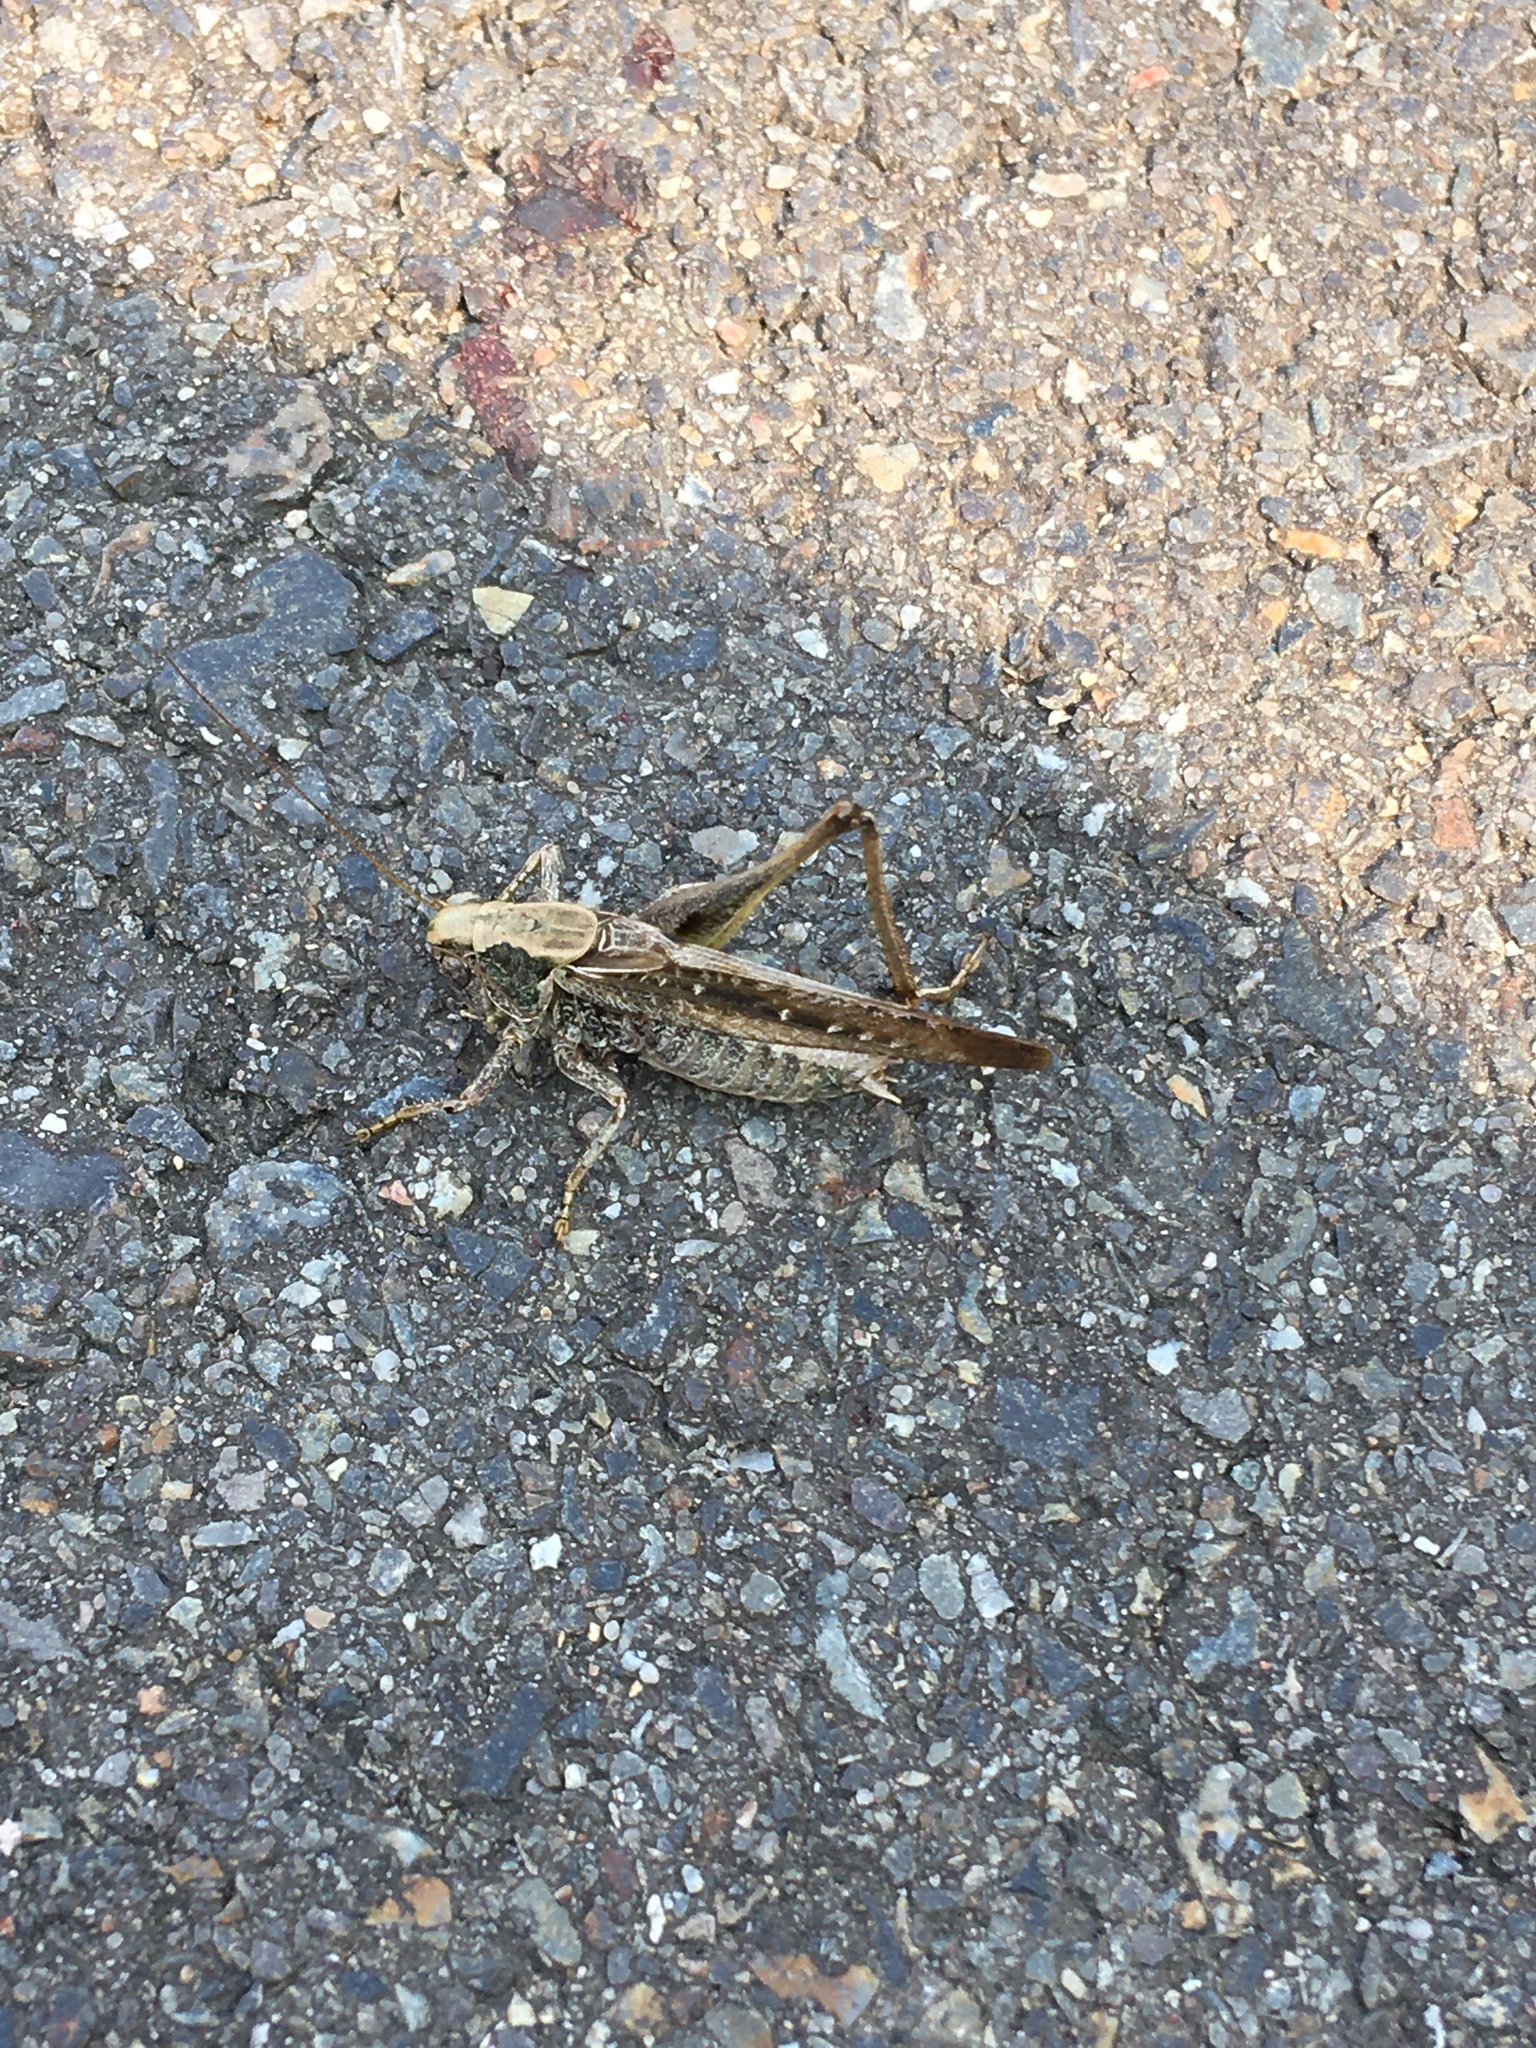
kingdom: Animalia
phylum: Arthropoda
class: Insecta
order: Orthoptera
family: Tettigoniidae
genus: Platycleis
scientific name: Platycleis albopunctata
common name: Grey bush-cricket
